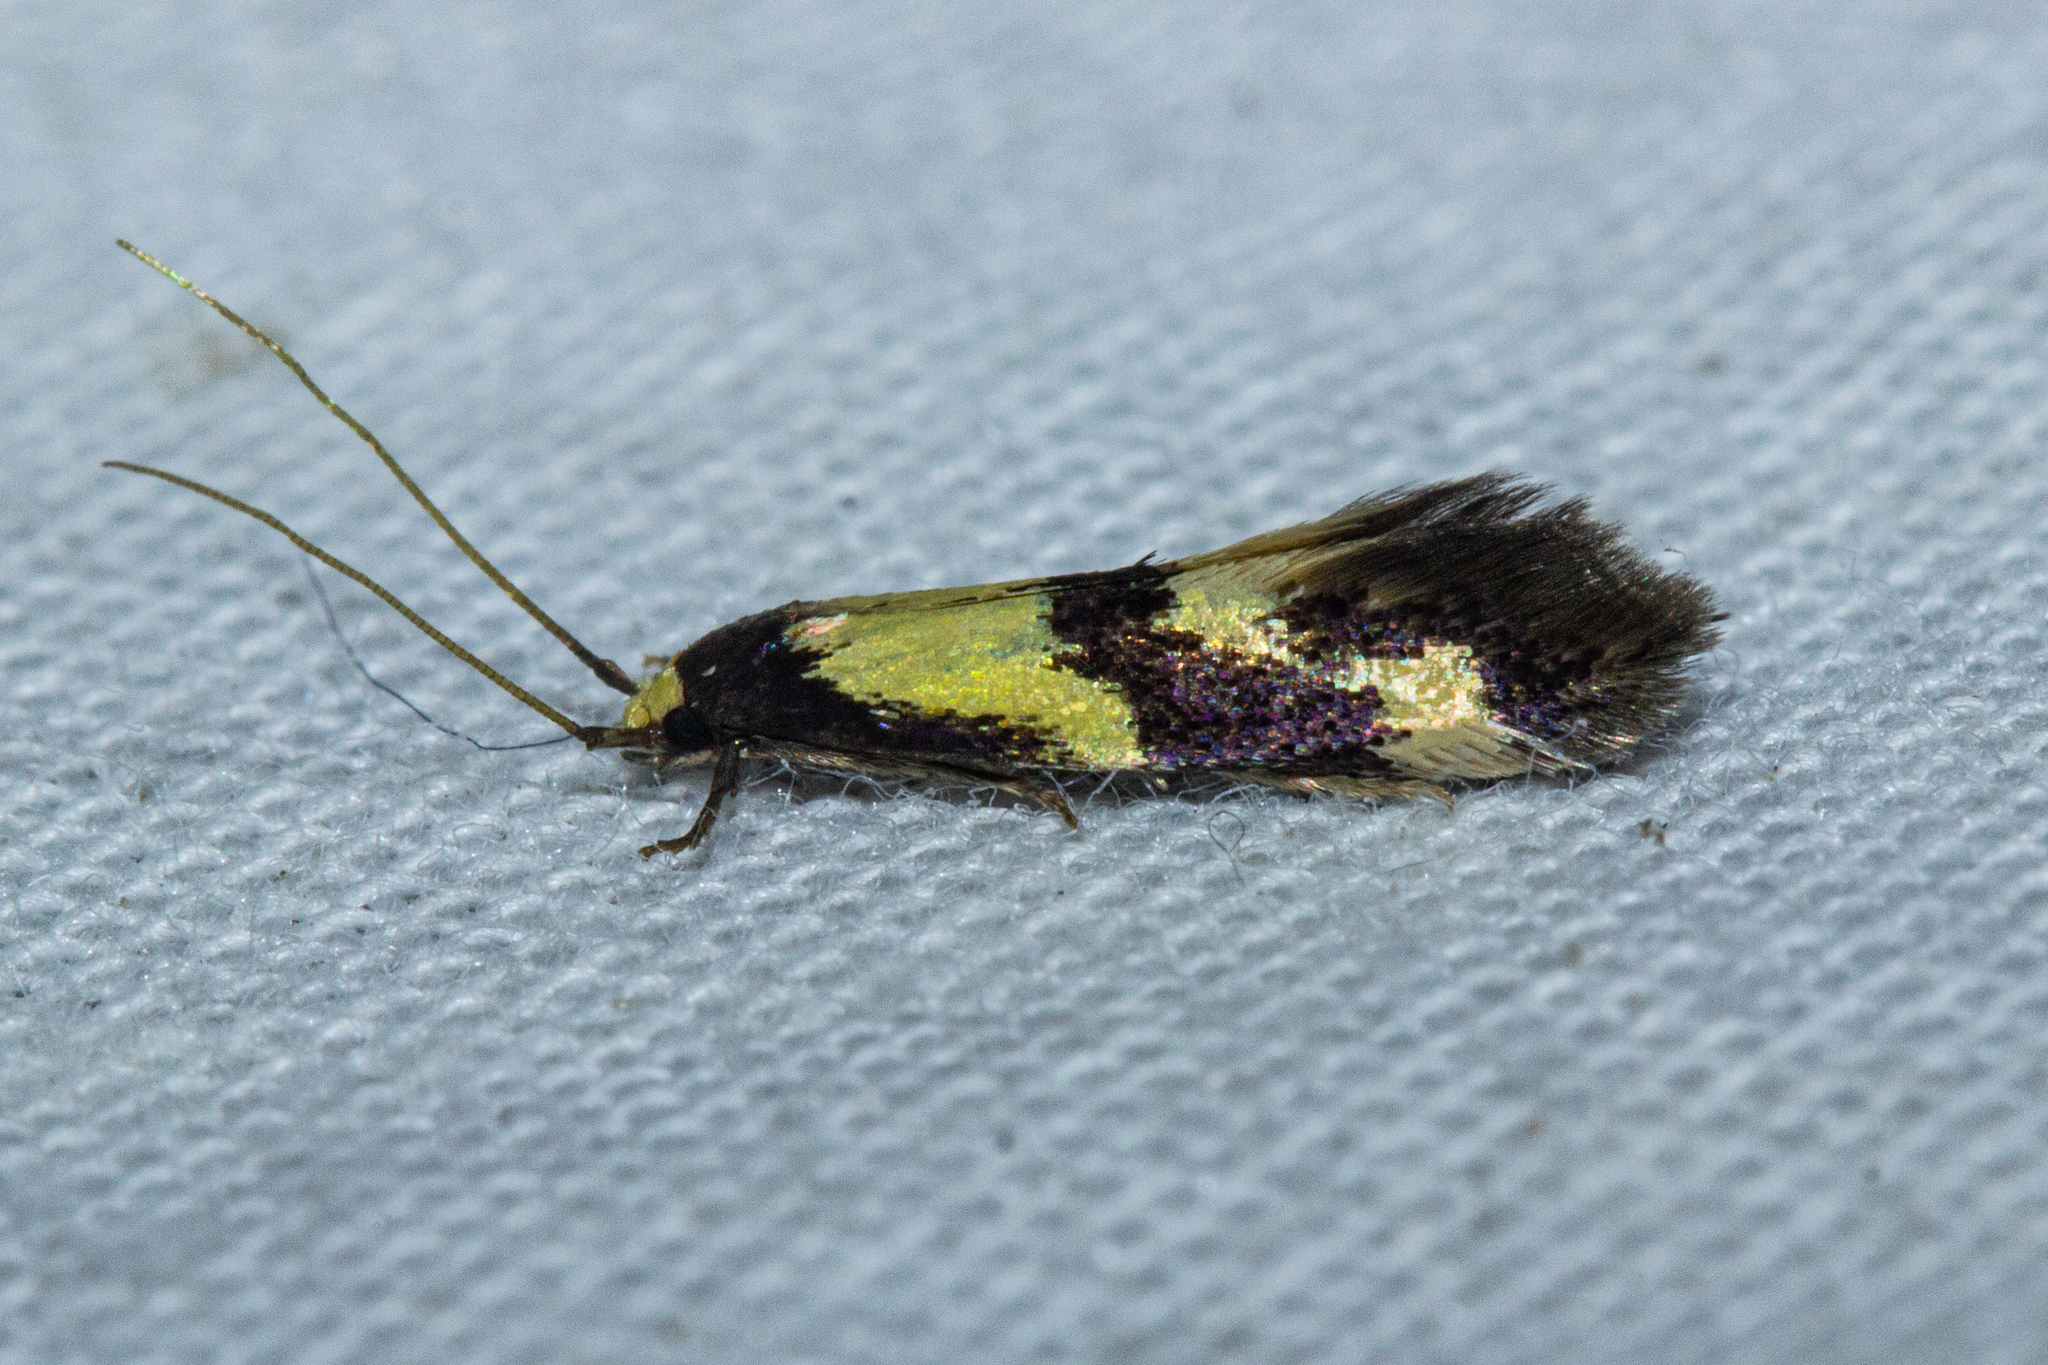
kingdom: Animalia
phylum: Arthropoda
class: Insecta
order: Lepidoptera
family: Tineidae
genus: Opogona
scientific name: Opogona comptella
